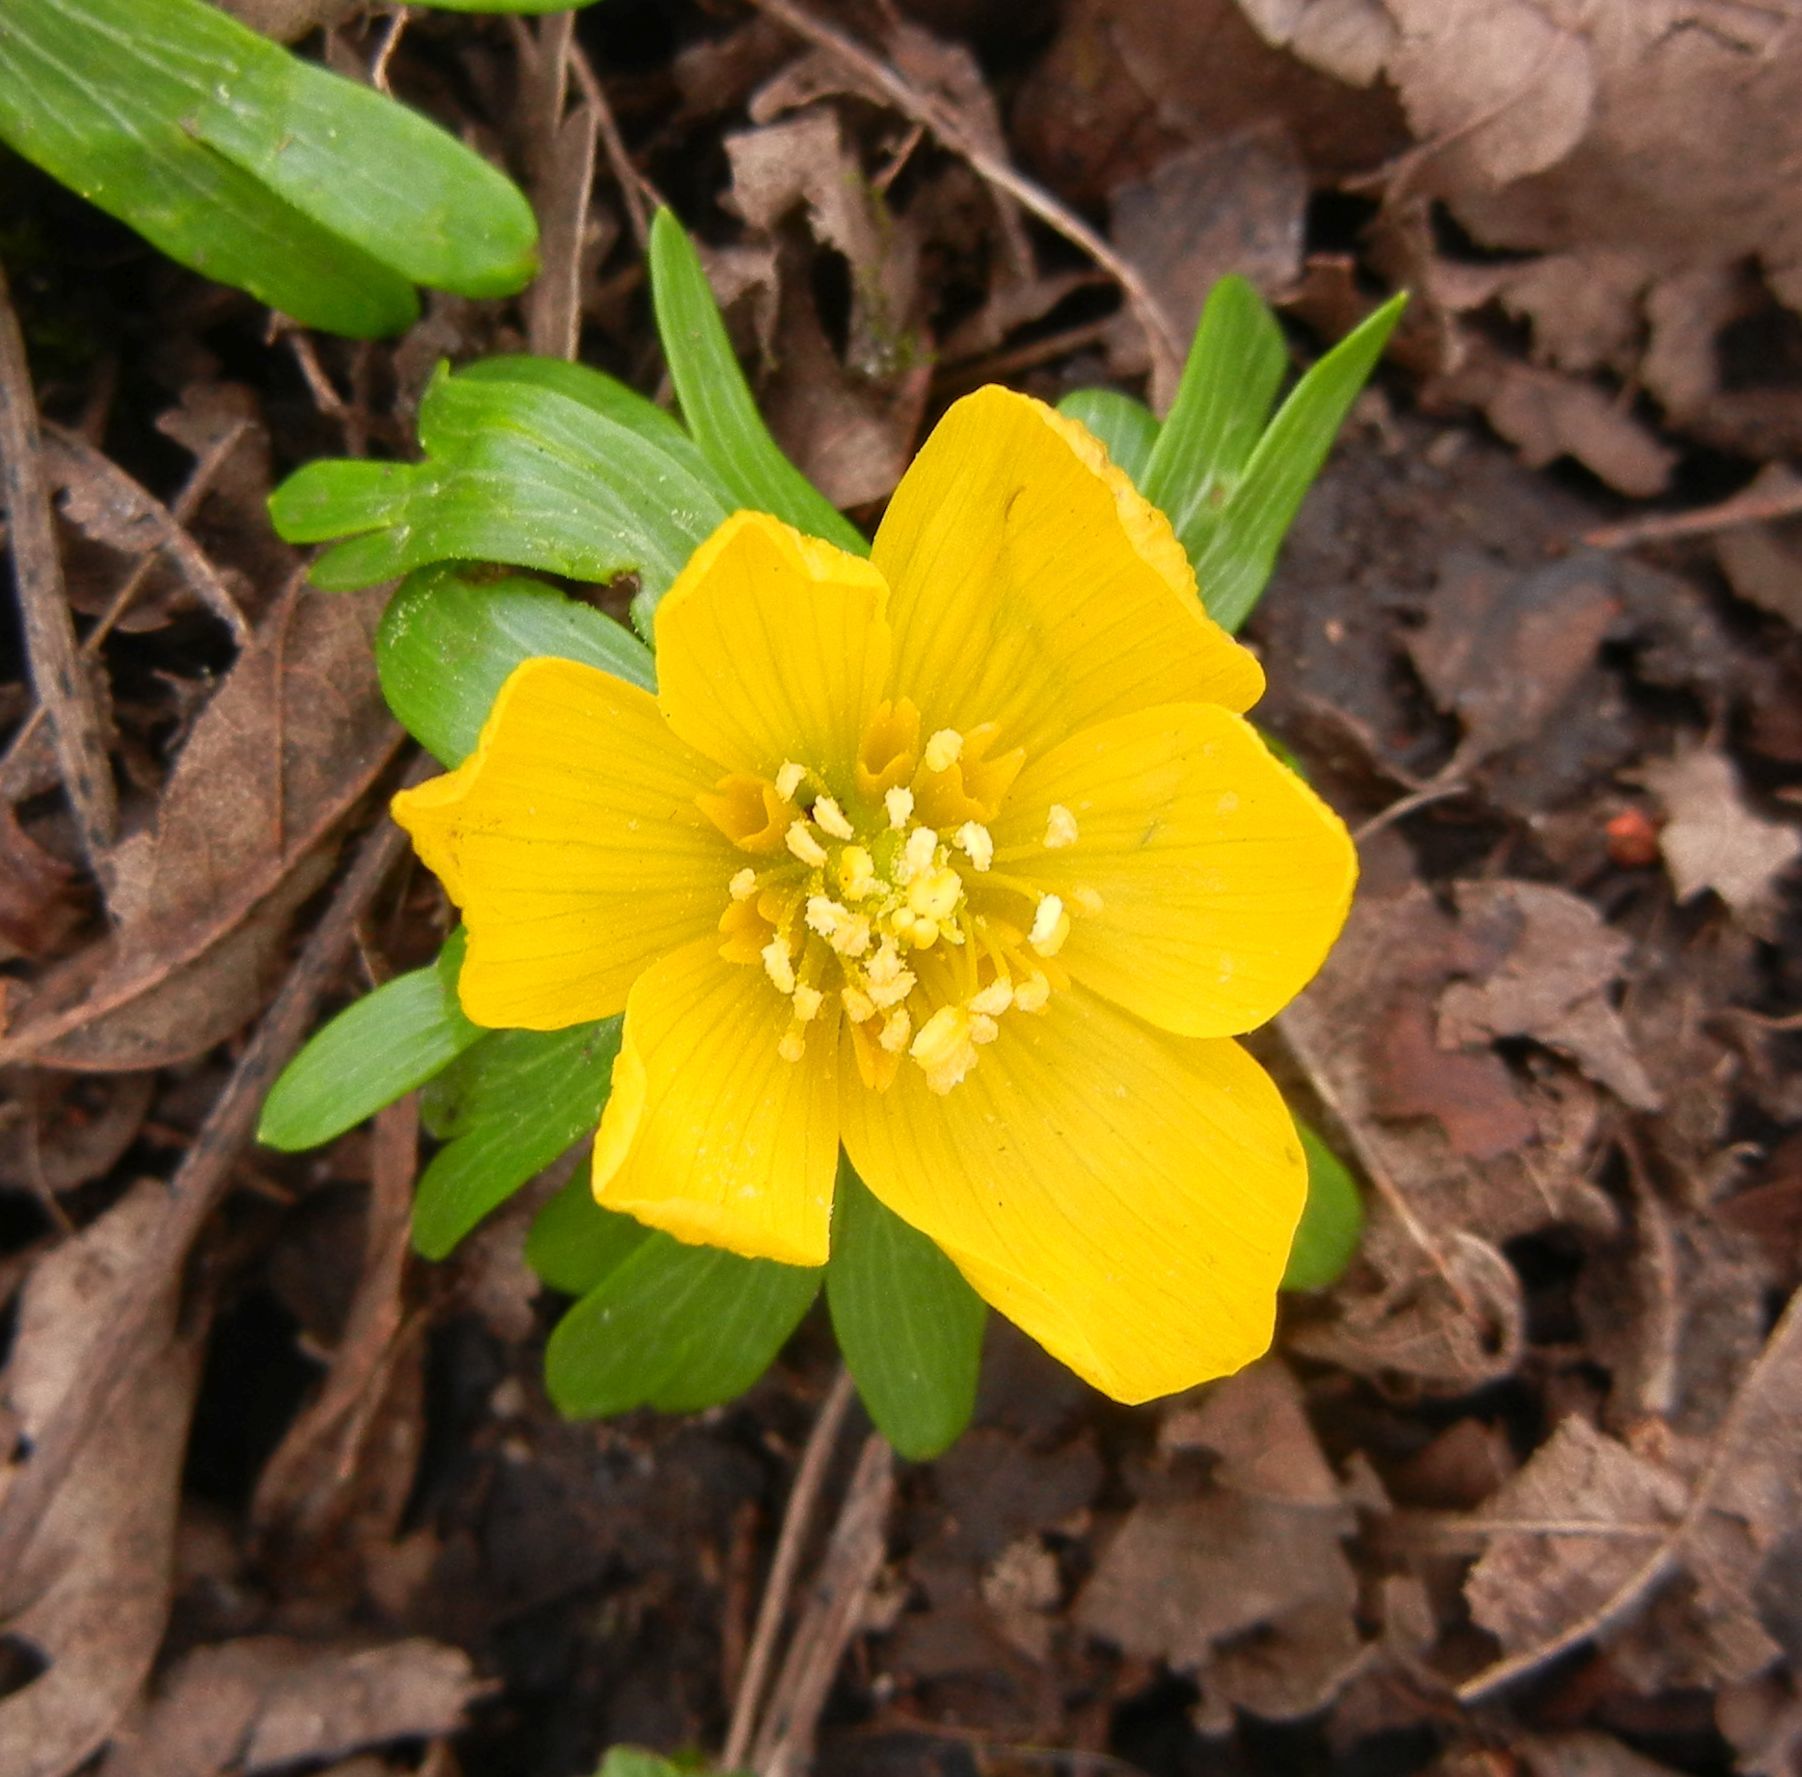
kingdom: Plantae
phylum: Tracheophyta
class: Magnoliopsida
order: Ranunculales
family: Ranunculaceae
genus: Eranthis
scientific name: Eranthis hyemalis
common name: Winter aconite
